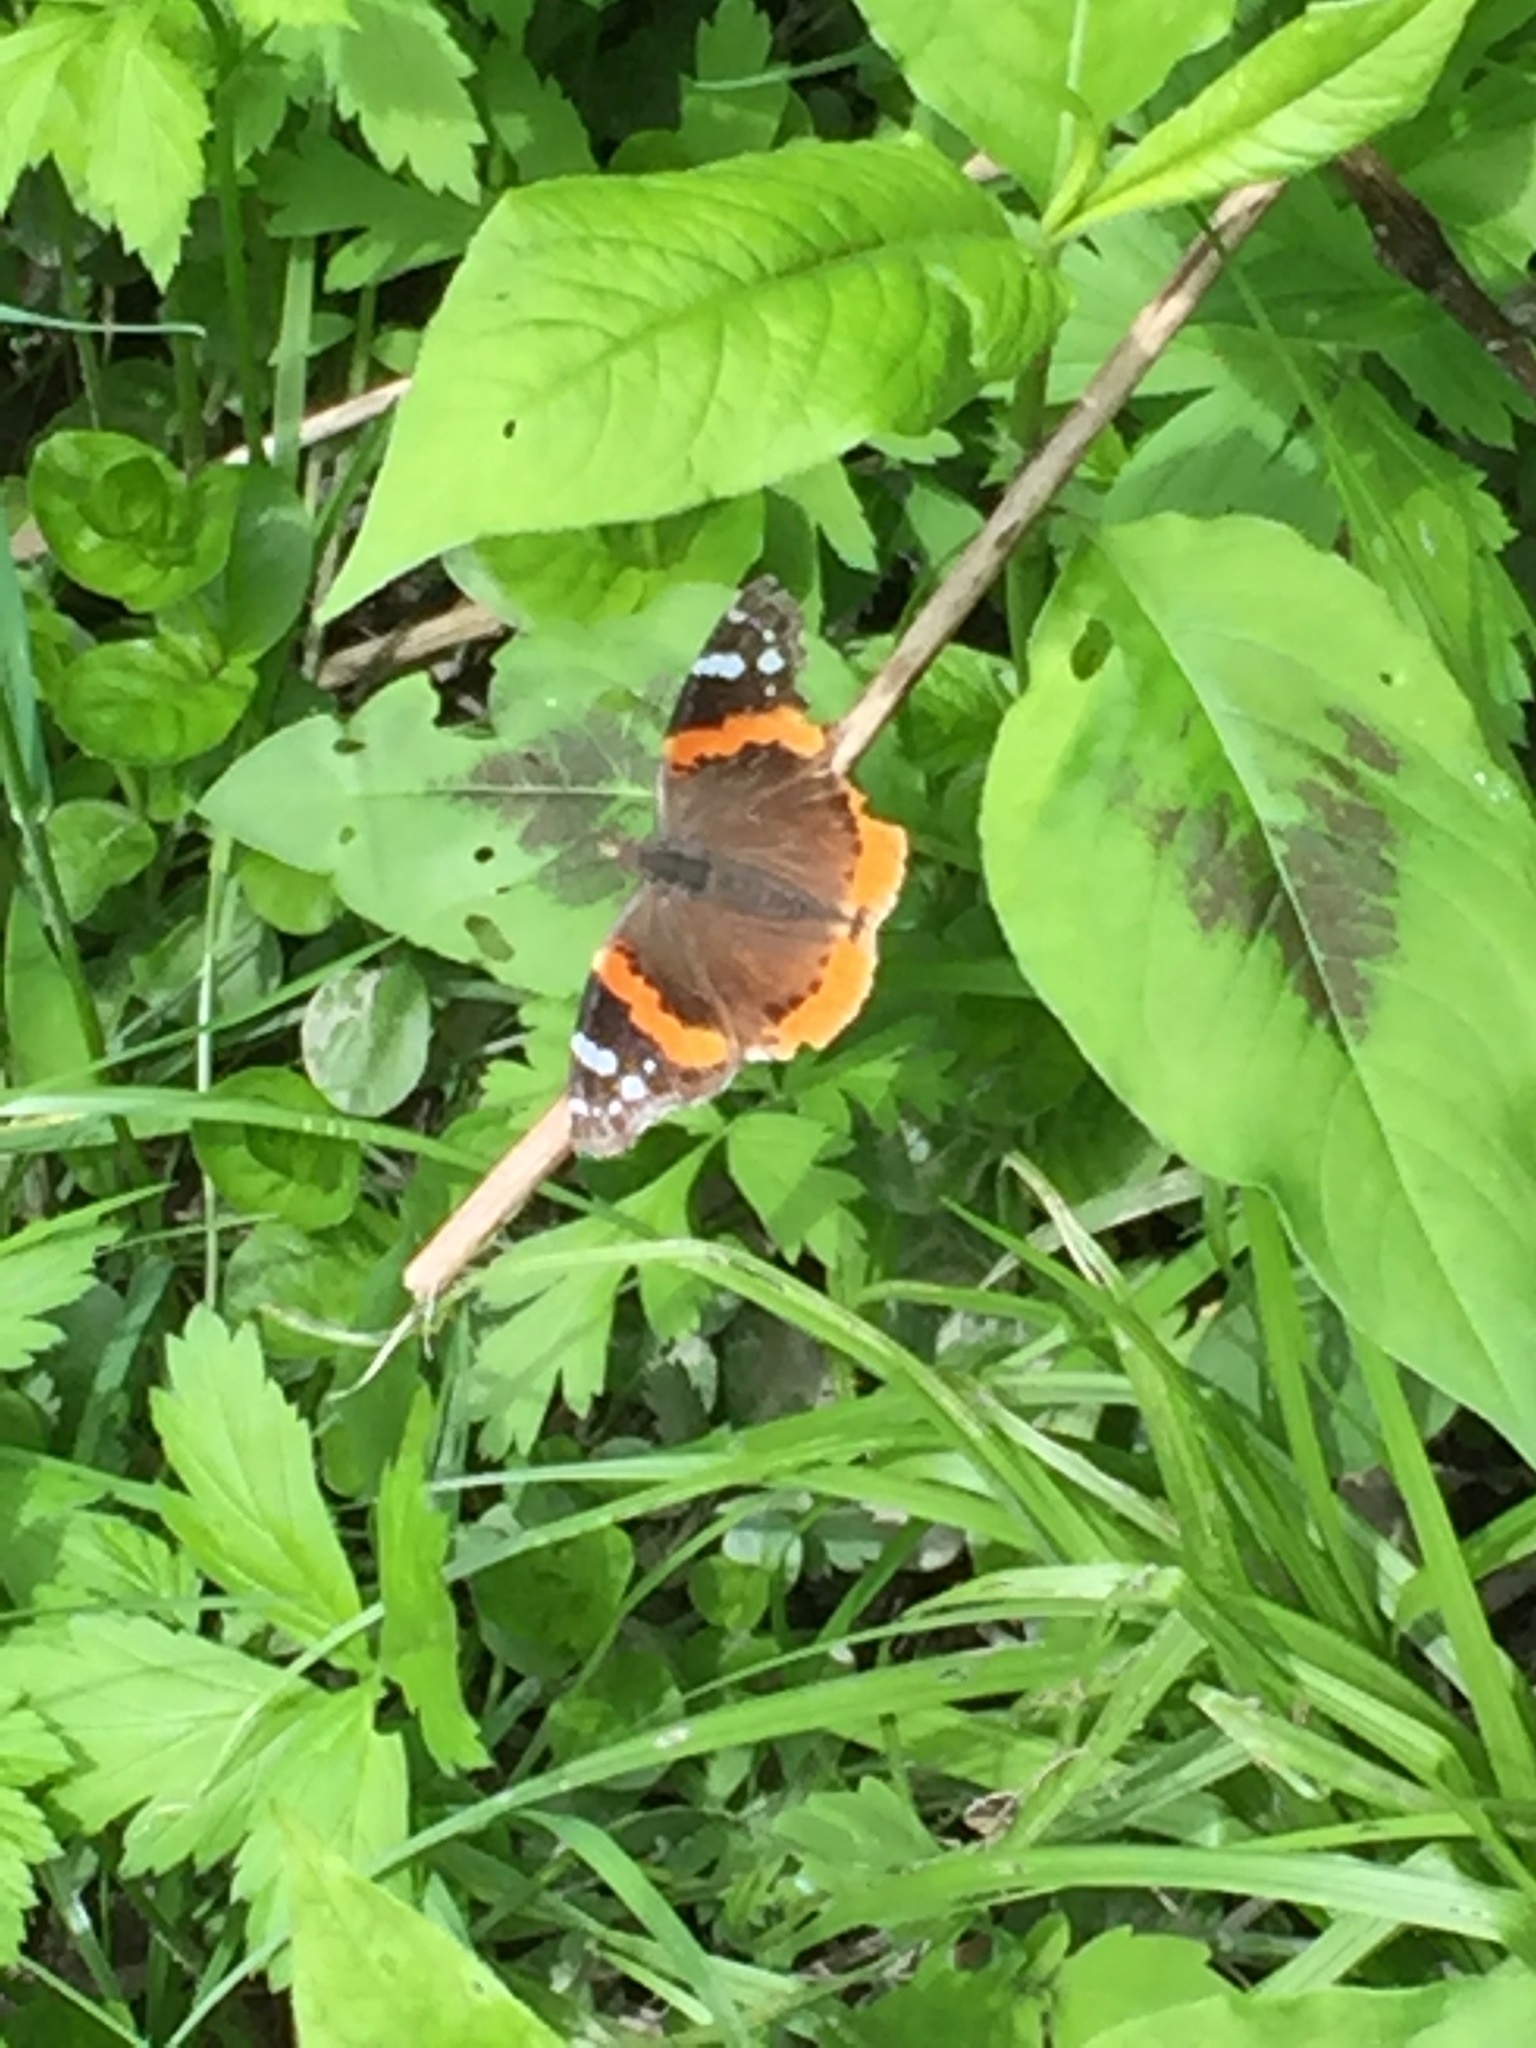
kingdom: Animalia
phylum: Arthropoda
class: Insecta
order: Lepidoptera
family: Nymphalidae
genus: Vanessa
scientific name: Vanessa atalanta
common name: Red admiral
